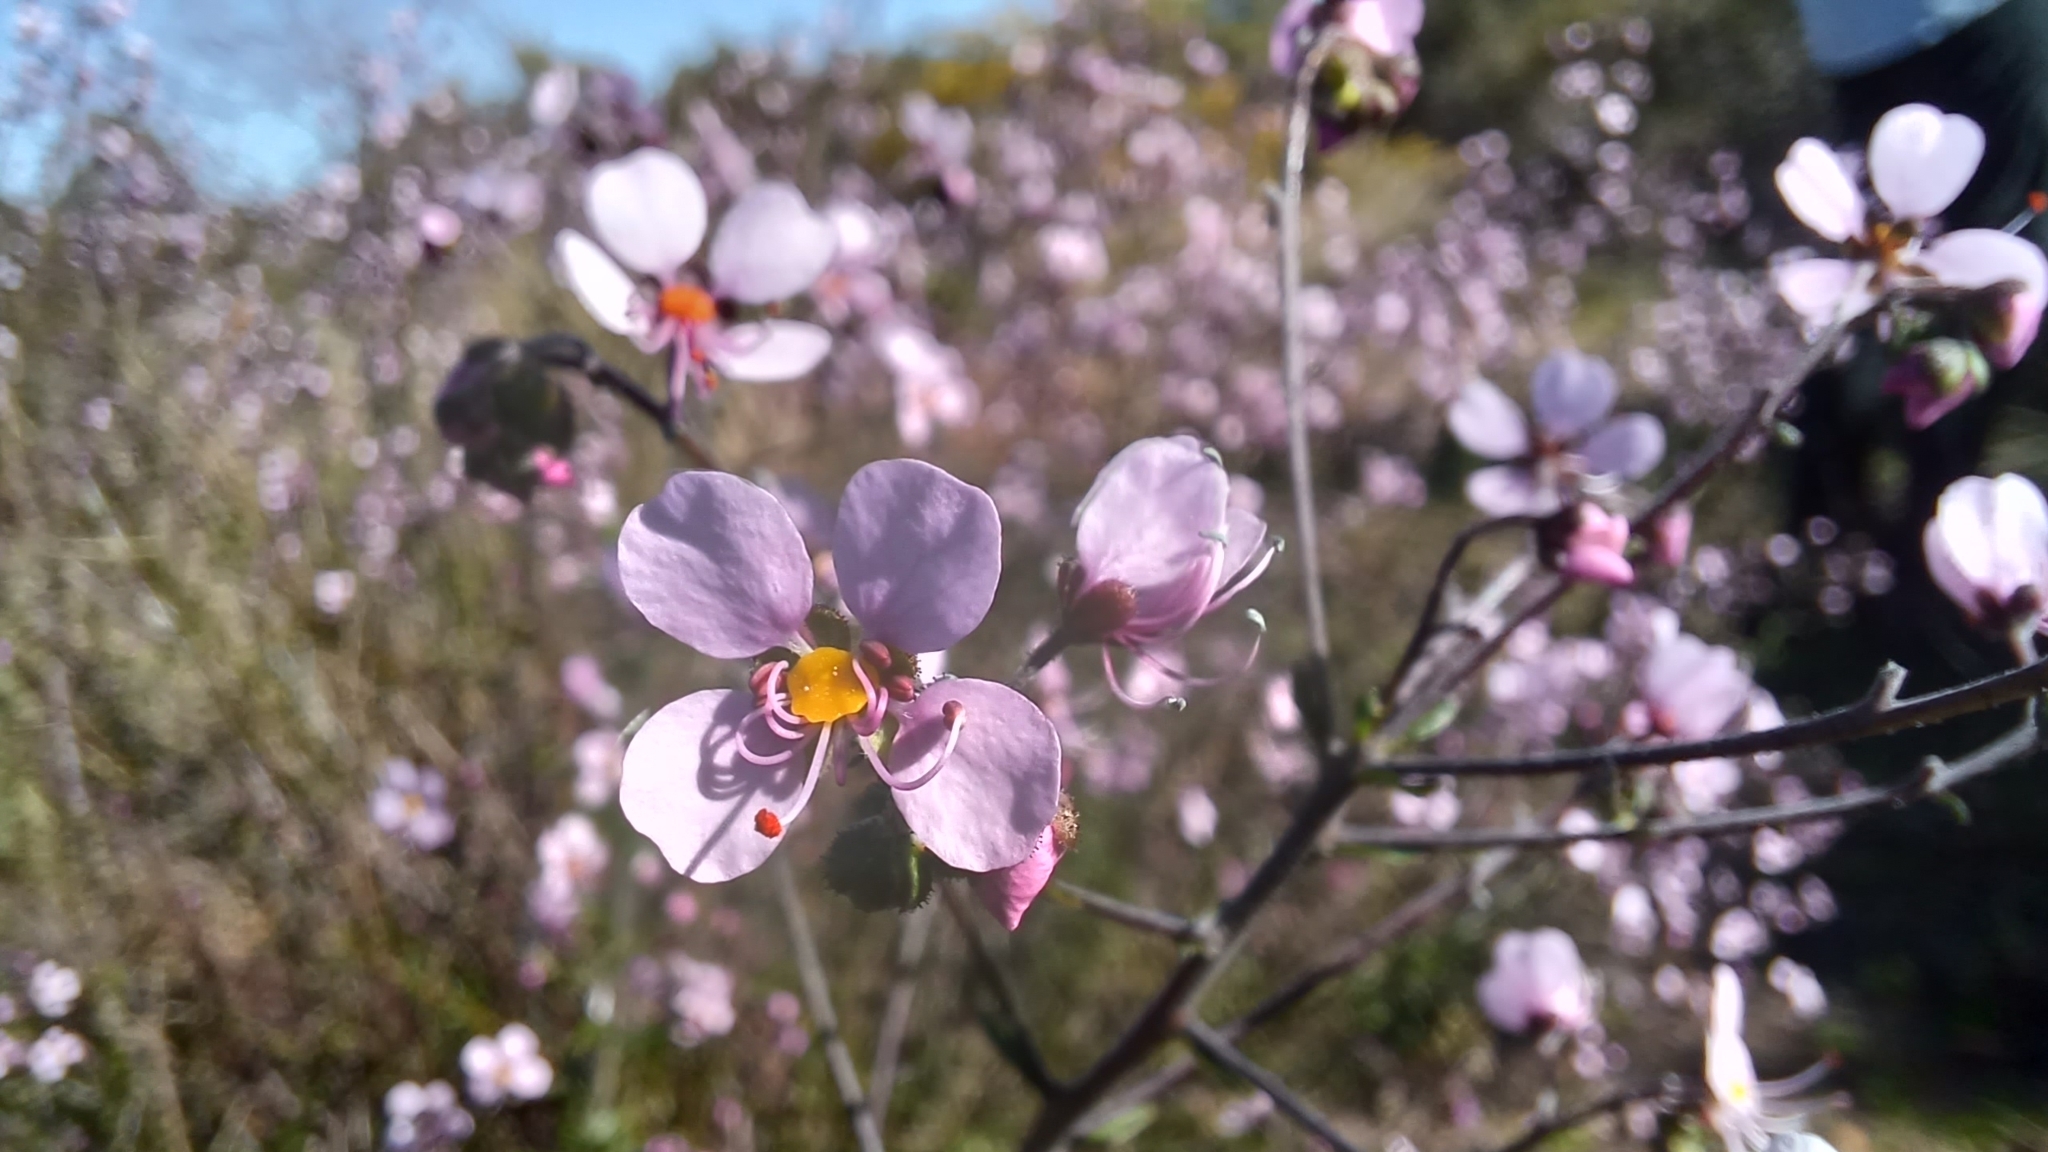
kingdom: Plantae
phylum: Tracheophyta
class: Magnoliopsida
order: Sapindales
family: Sapindaceae
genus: Diplopeltis
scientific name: Diplopeltis huegelii
